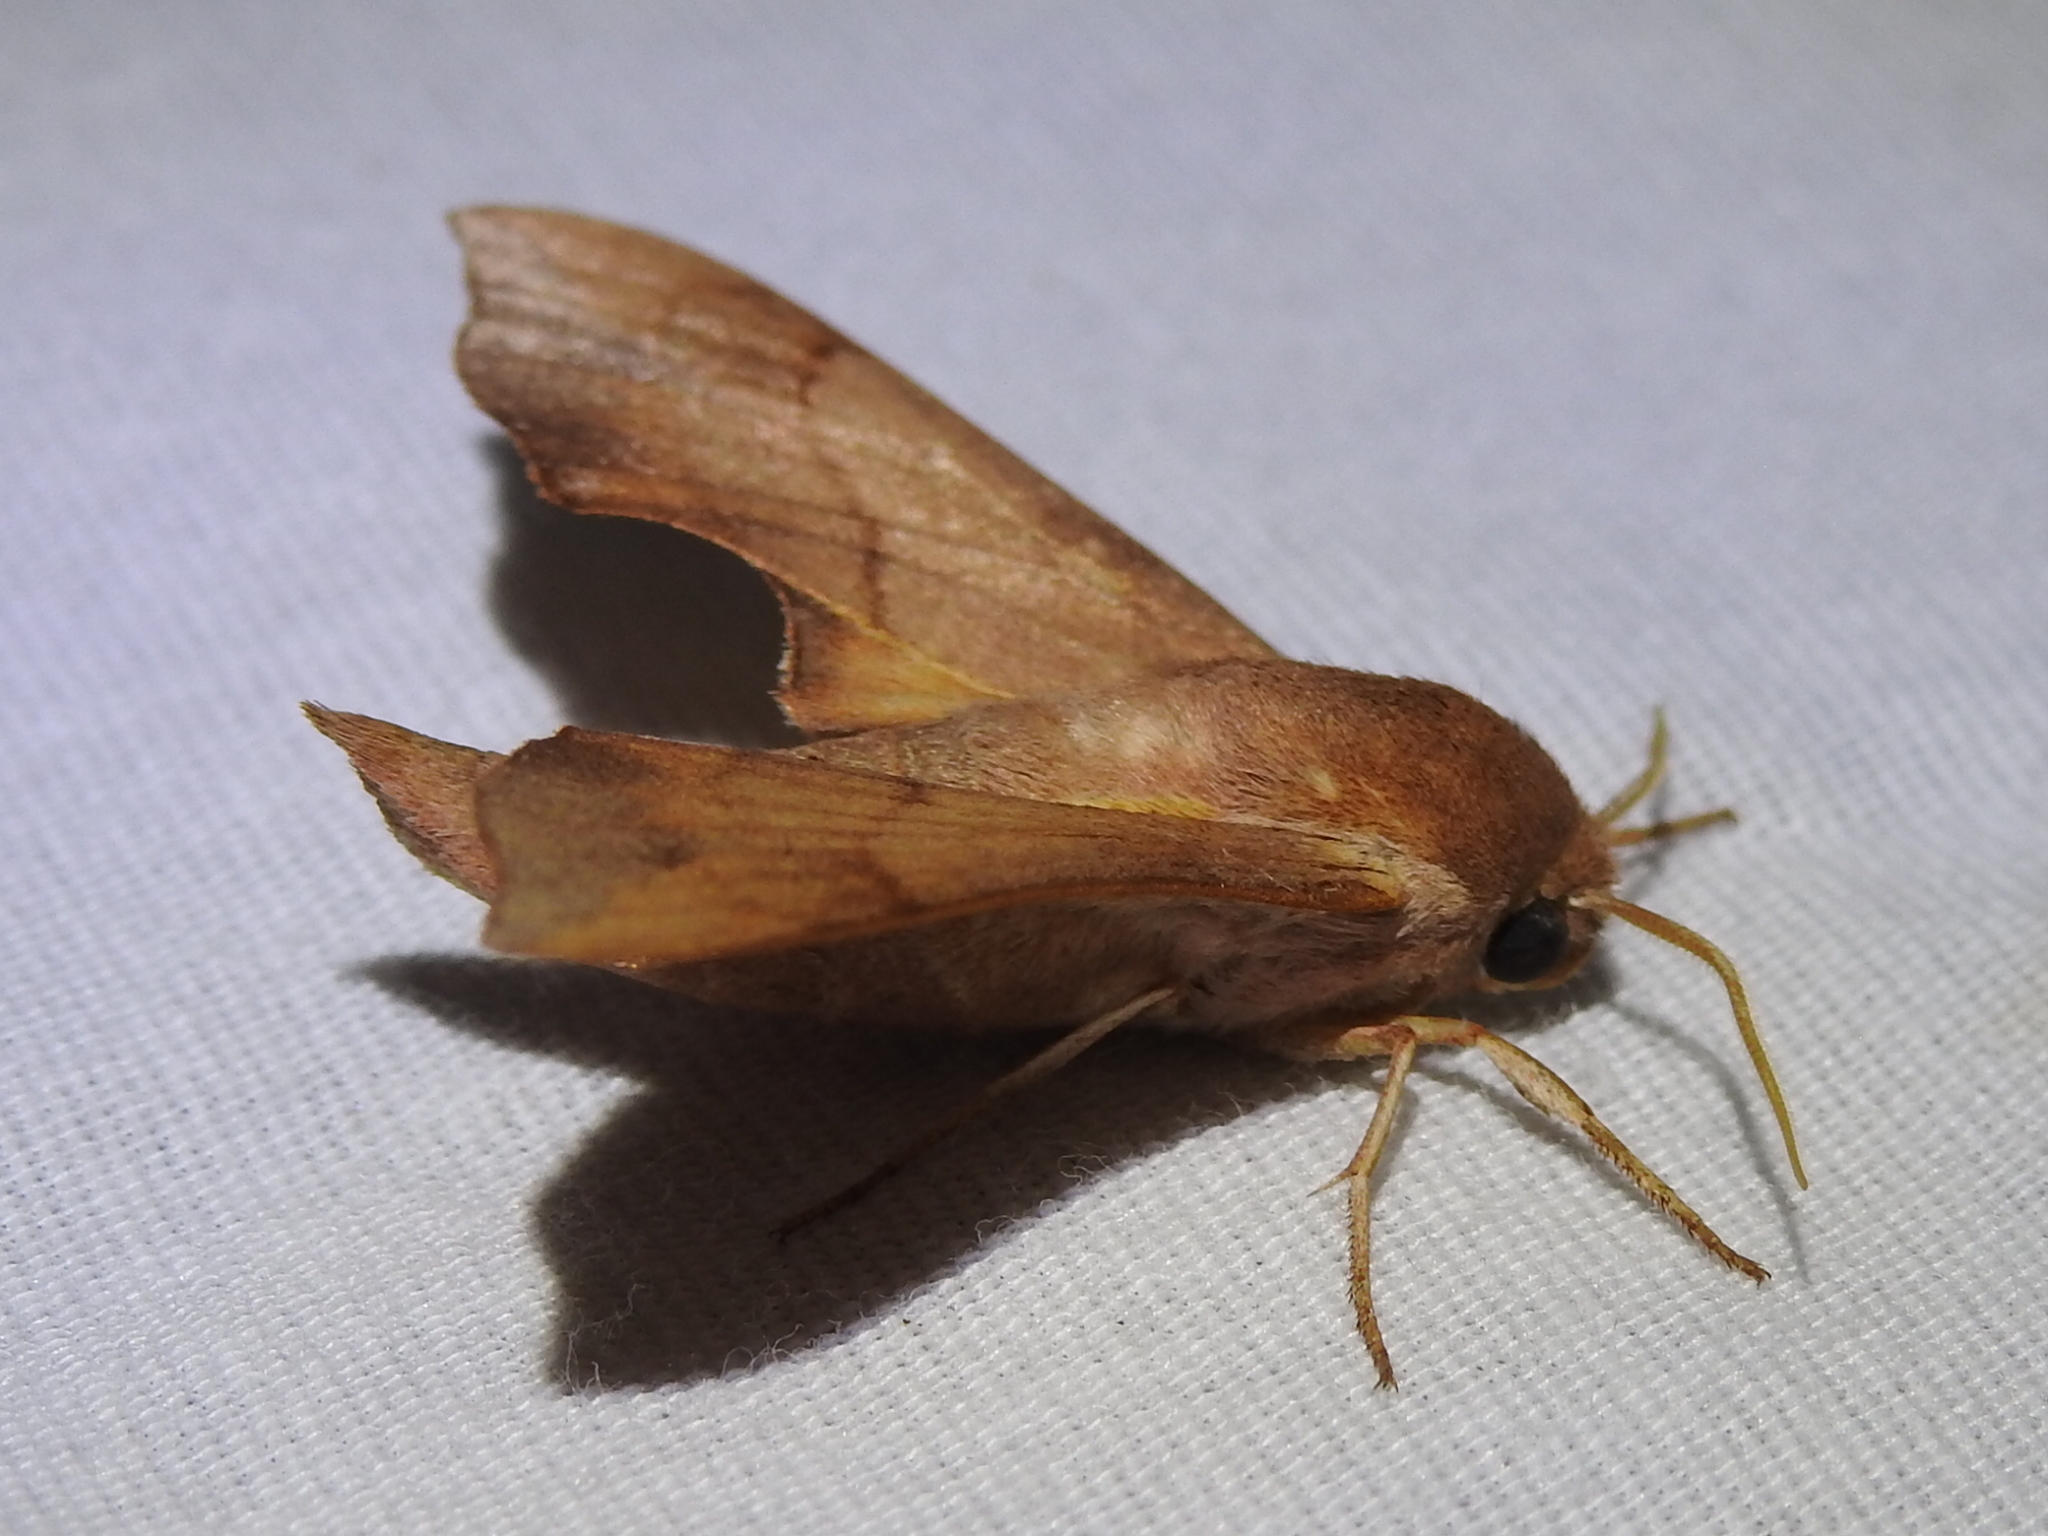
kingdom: Animalia
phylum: Arthropoda
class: Insecta
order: Lepidoptera
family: Sphingidae
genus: Darapsa
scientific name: Darapsa myron
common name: Hog sphinx
